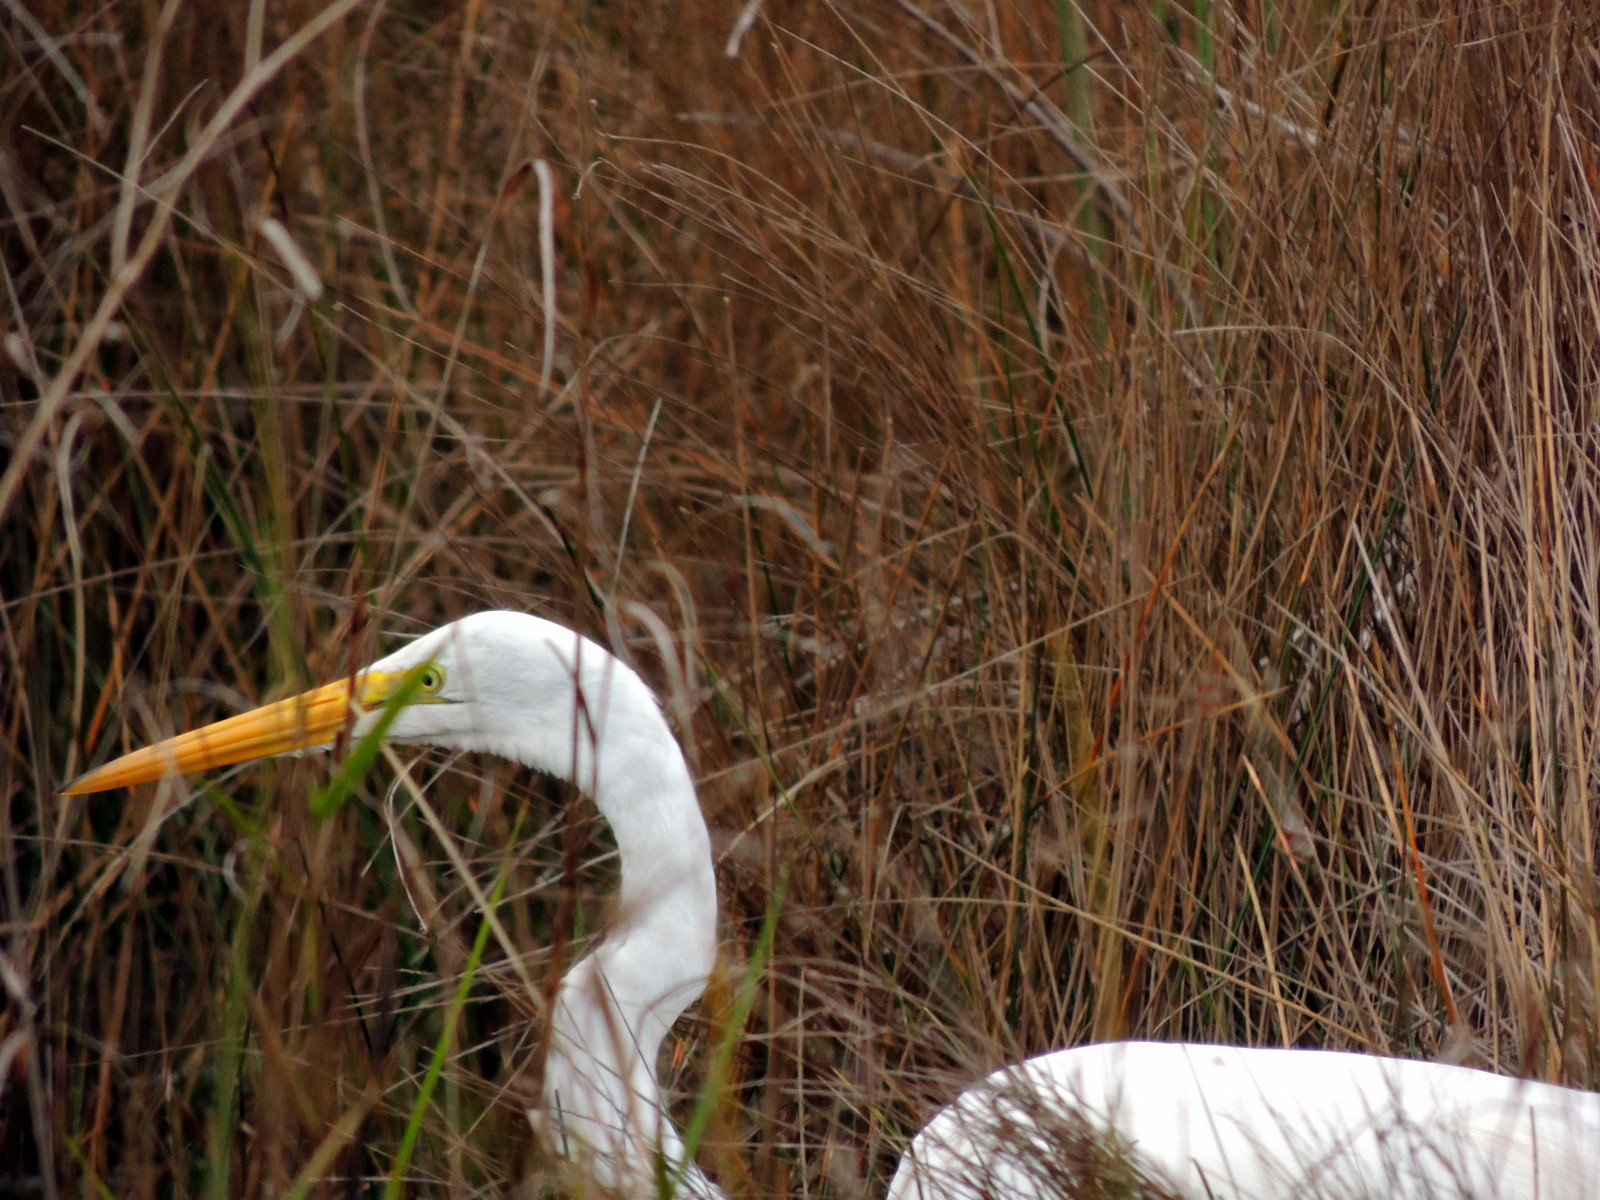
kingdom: Animalia
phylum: Chordata
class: Aves
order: Pelecaniformes
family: Ardeidae
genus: Ardea
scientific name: Ardea alba
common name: Great egret
